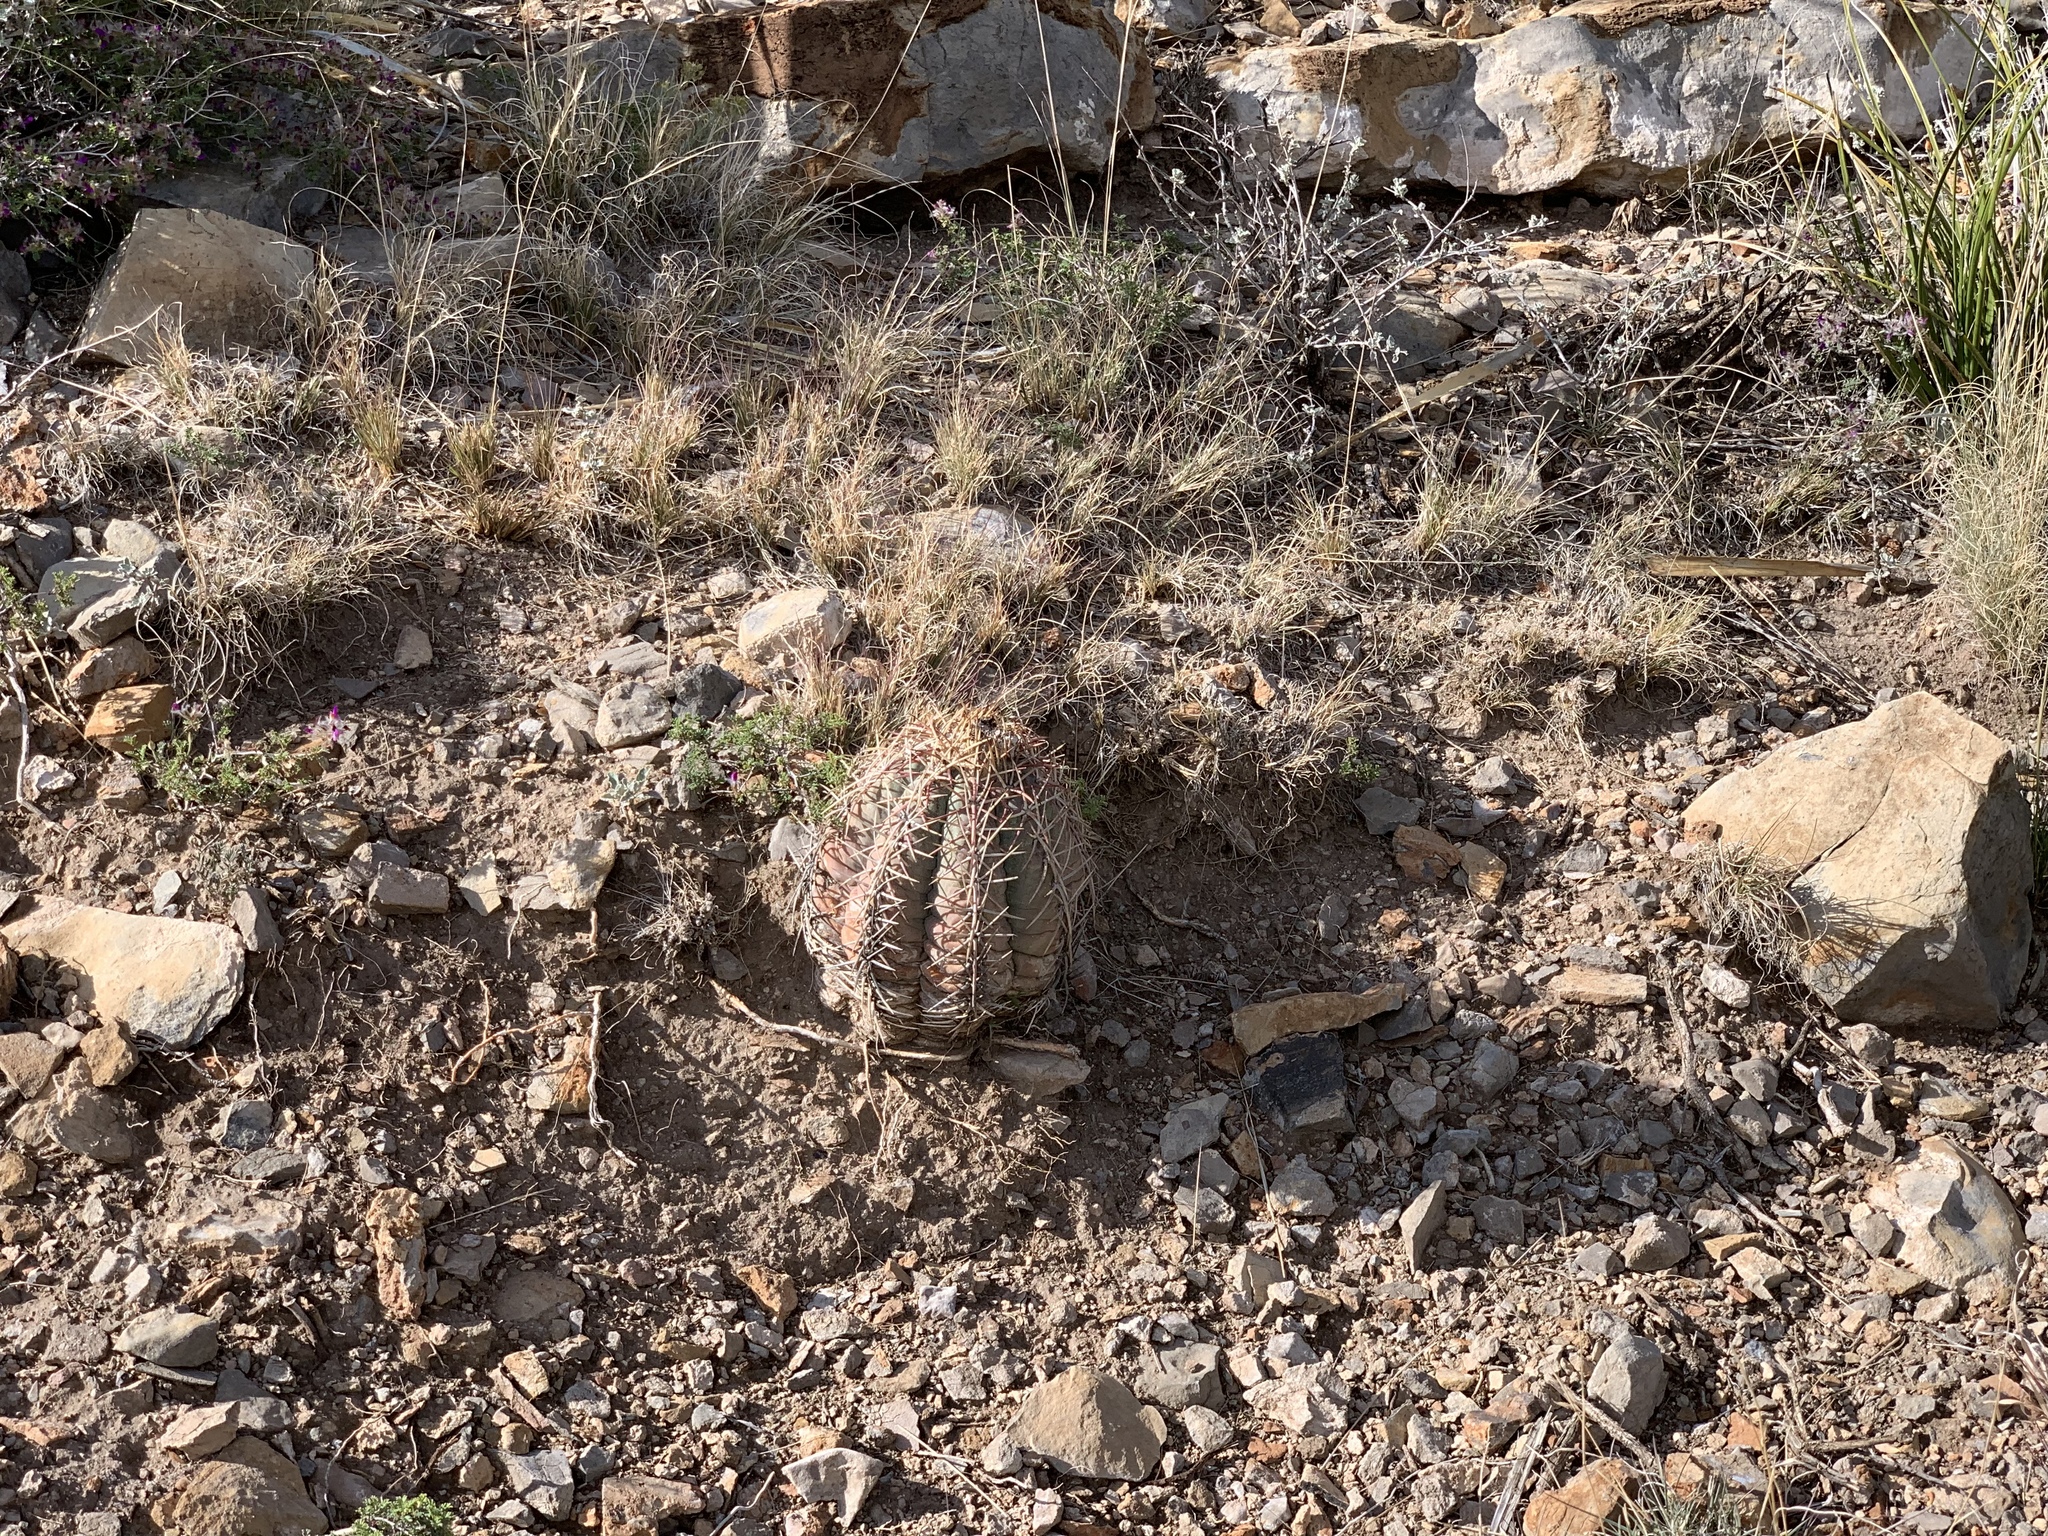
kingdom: Plantae
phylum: Tracheophyta
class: Magnoliopsida
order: Caryophyllales
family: Cactaceae
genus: Echinocactus
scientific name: Echinocactus horizonthalonius
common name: Devilshead
